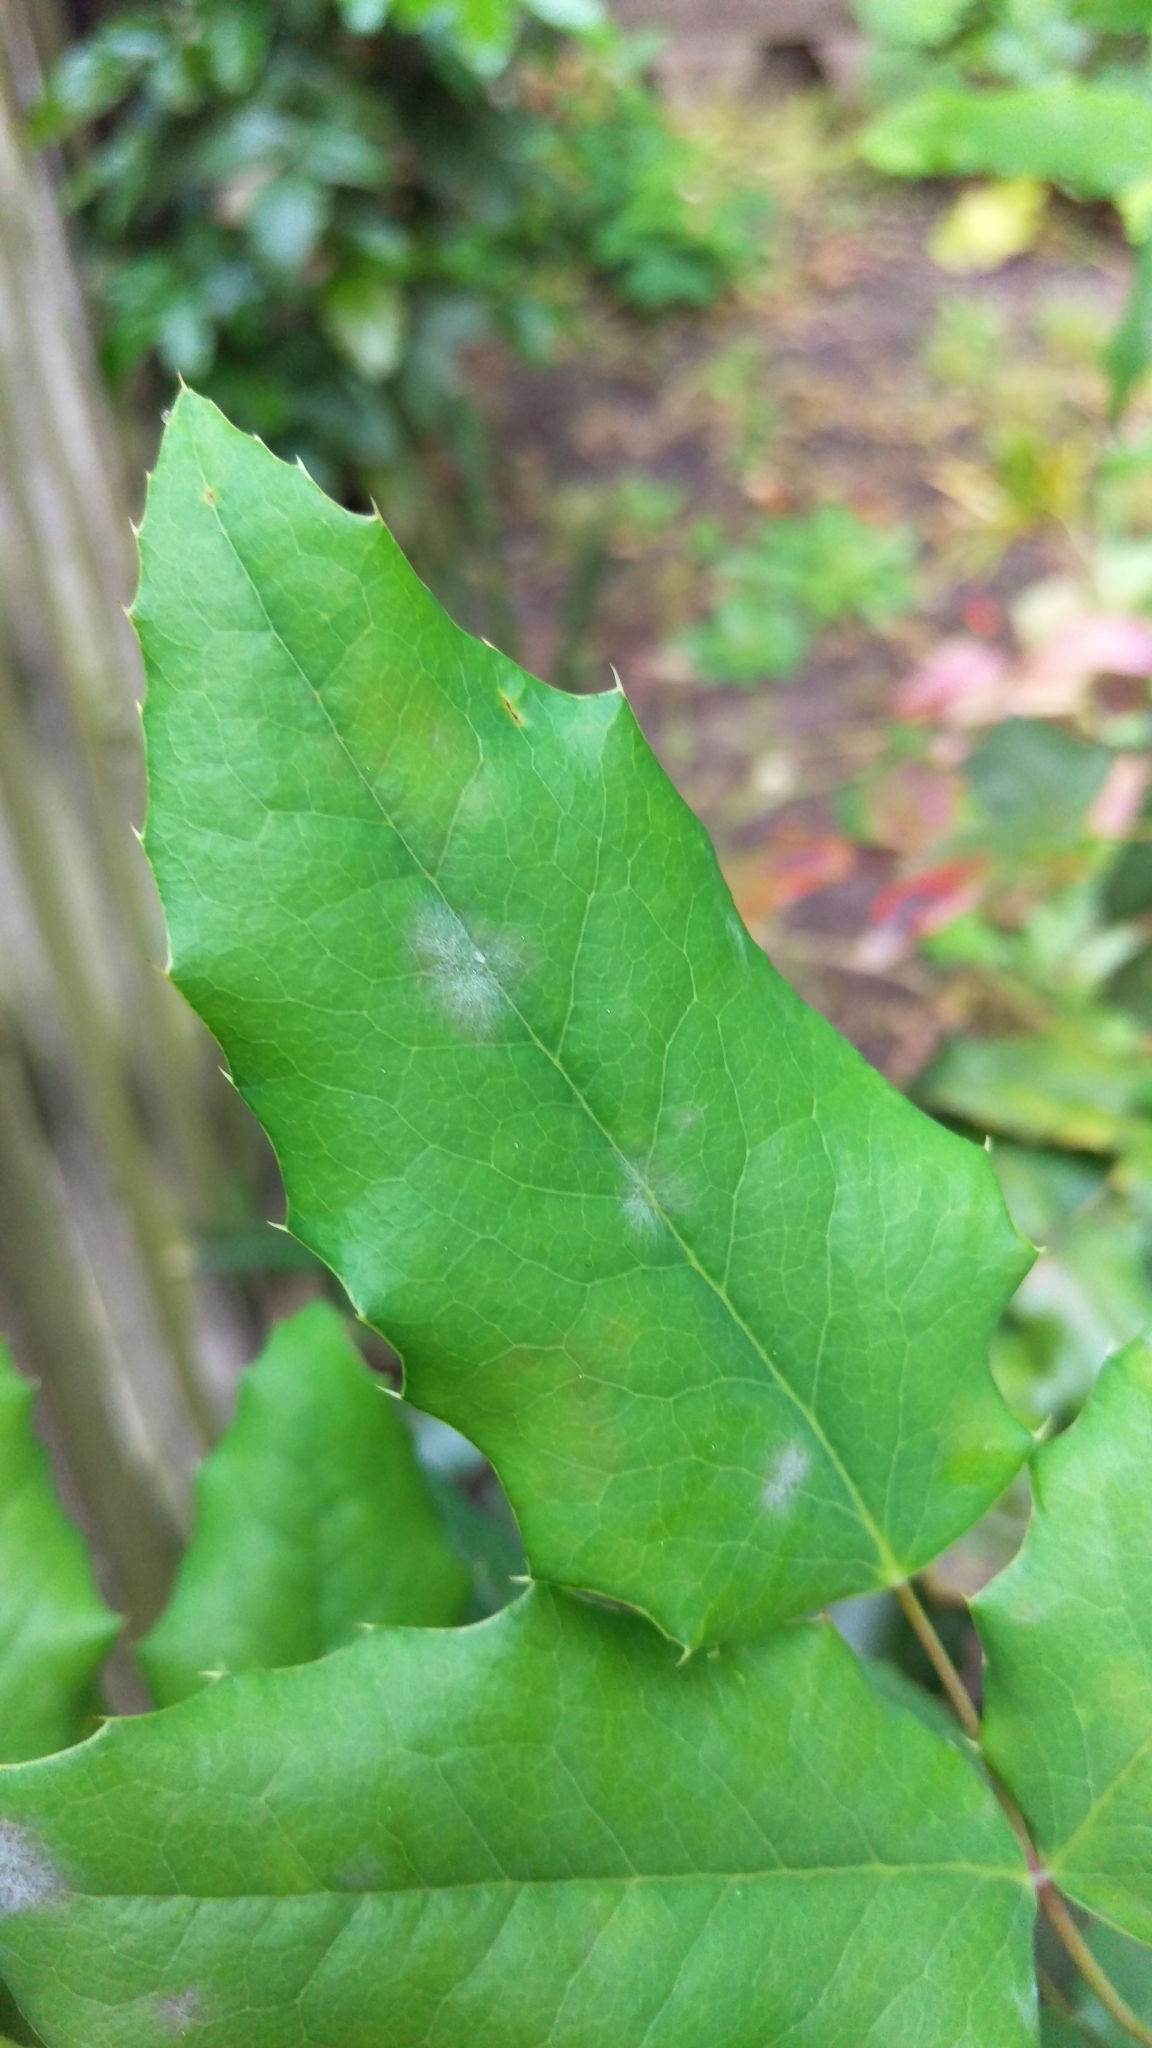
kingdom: Fungi
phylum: Ascomycota
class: Leotiomycetes
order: Helotiales
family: Erysiphaceae
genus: Erysiphe
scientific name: Erysiphe berberidis
